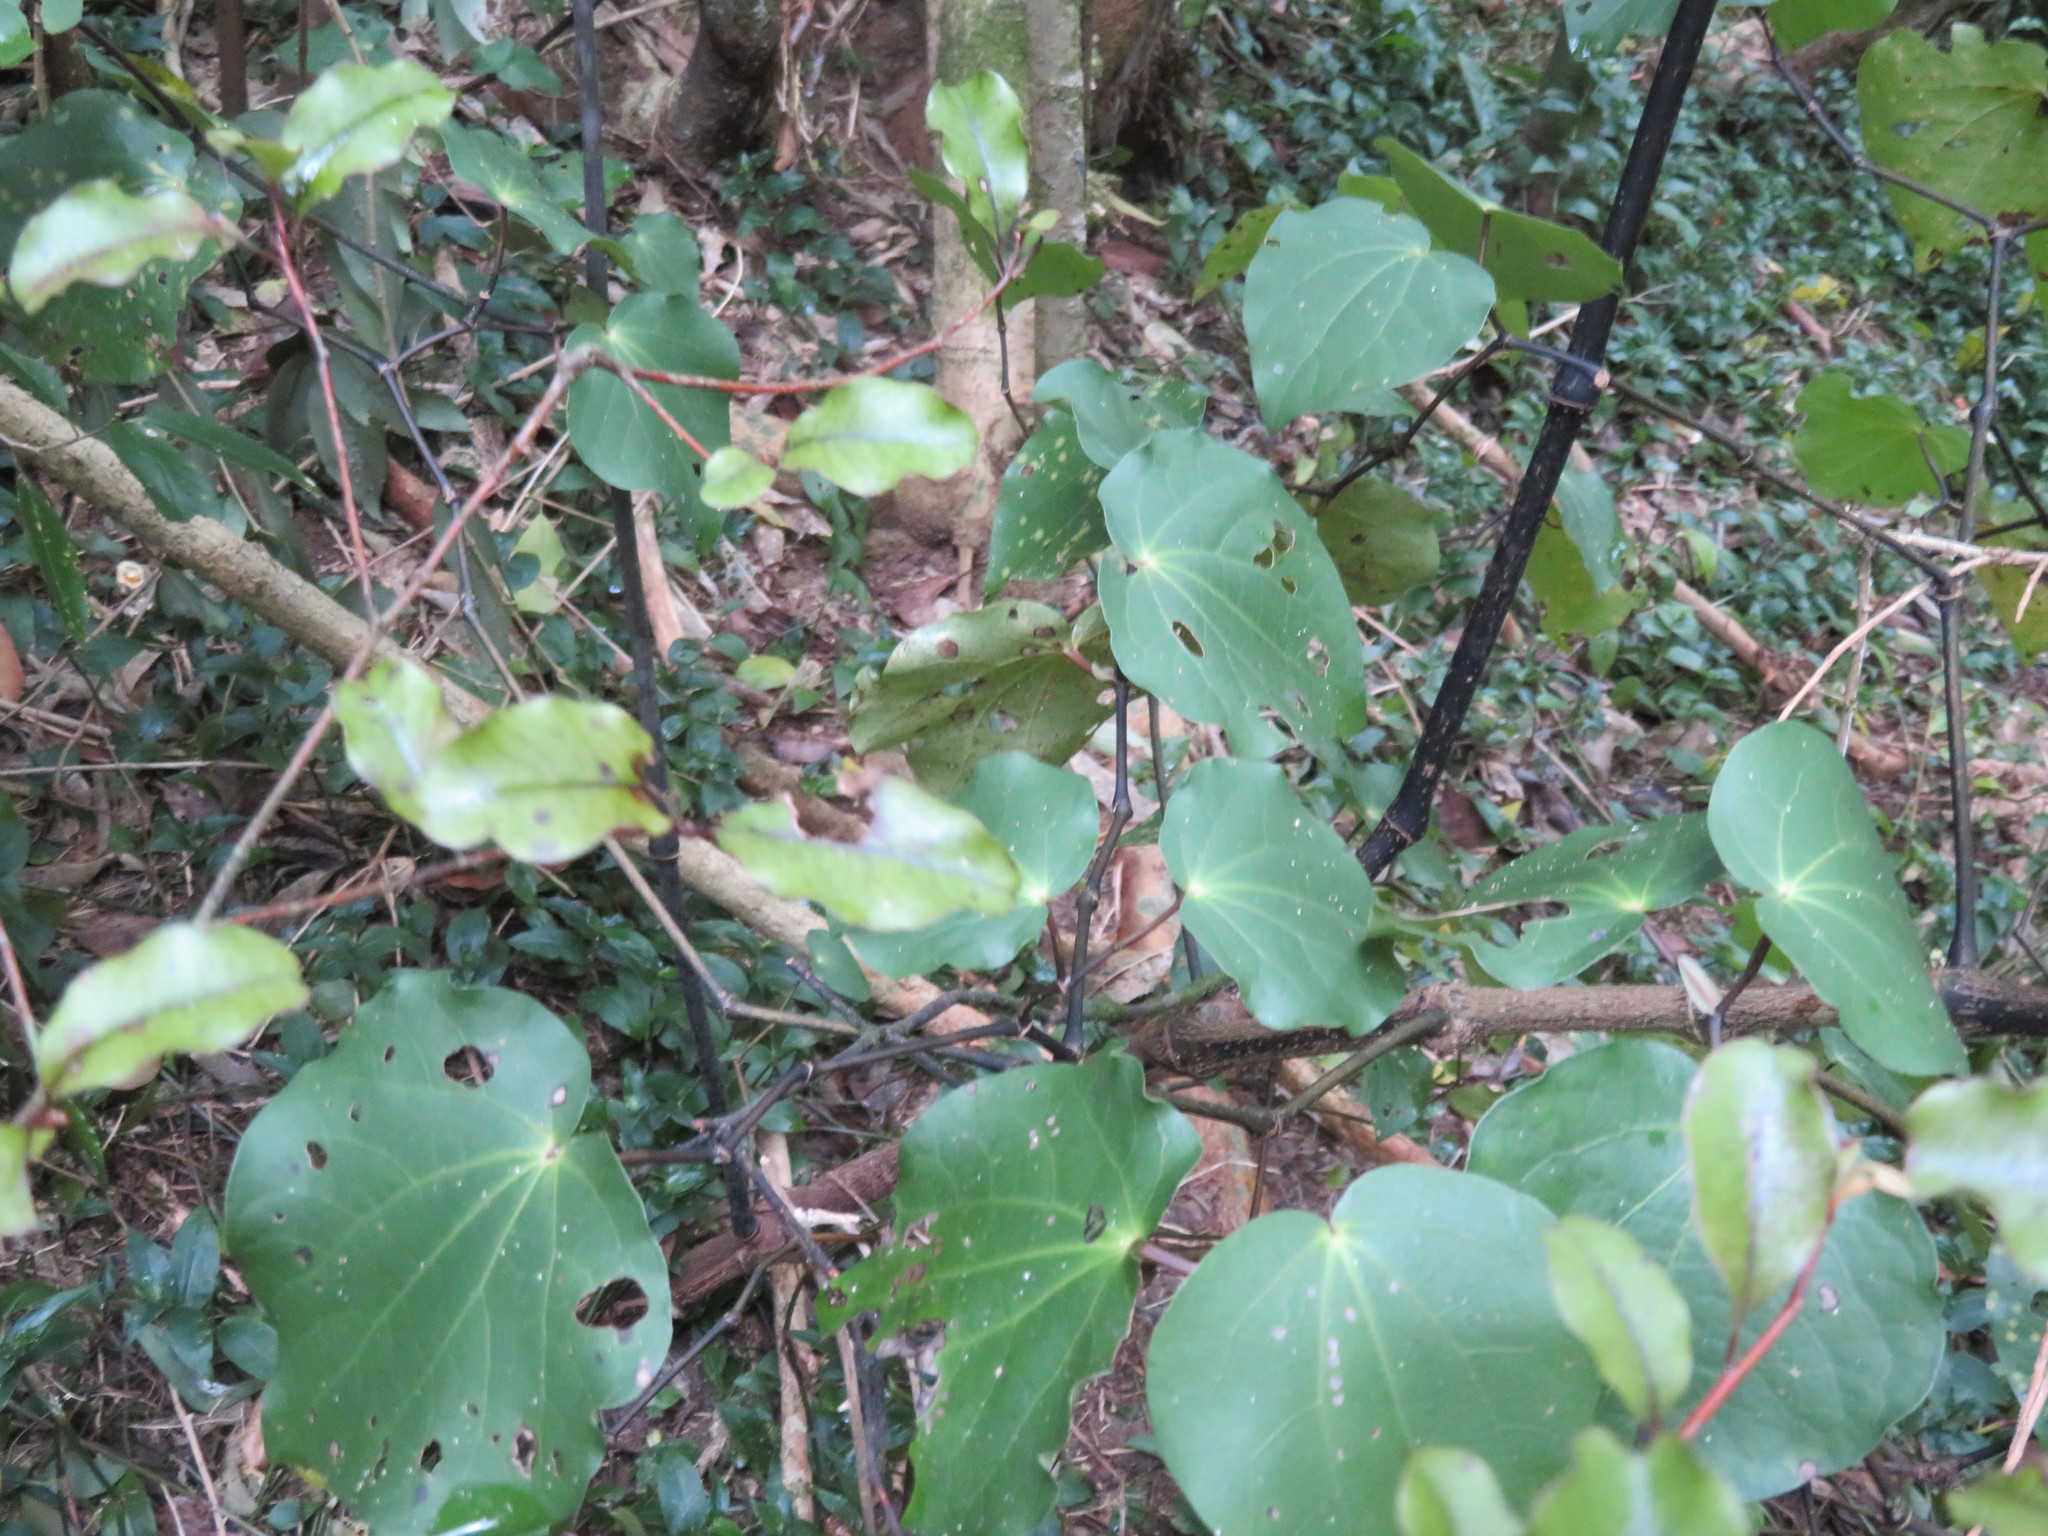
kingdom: Plantae
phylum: Tracheophyta
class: Magnoliopsida
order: Piperales
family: Piperaceae
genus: Macropiper
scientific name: Macropiper excelsum
